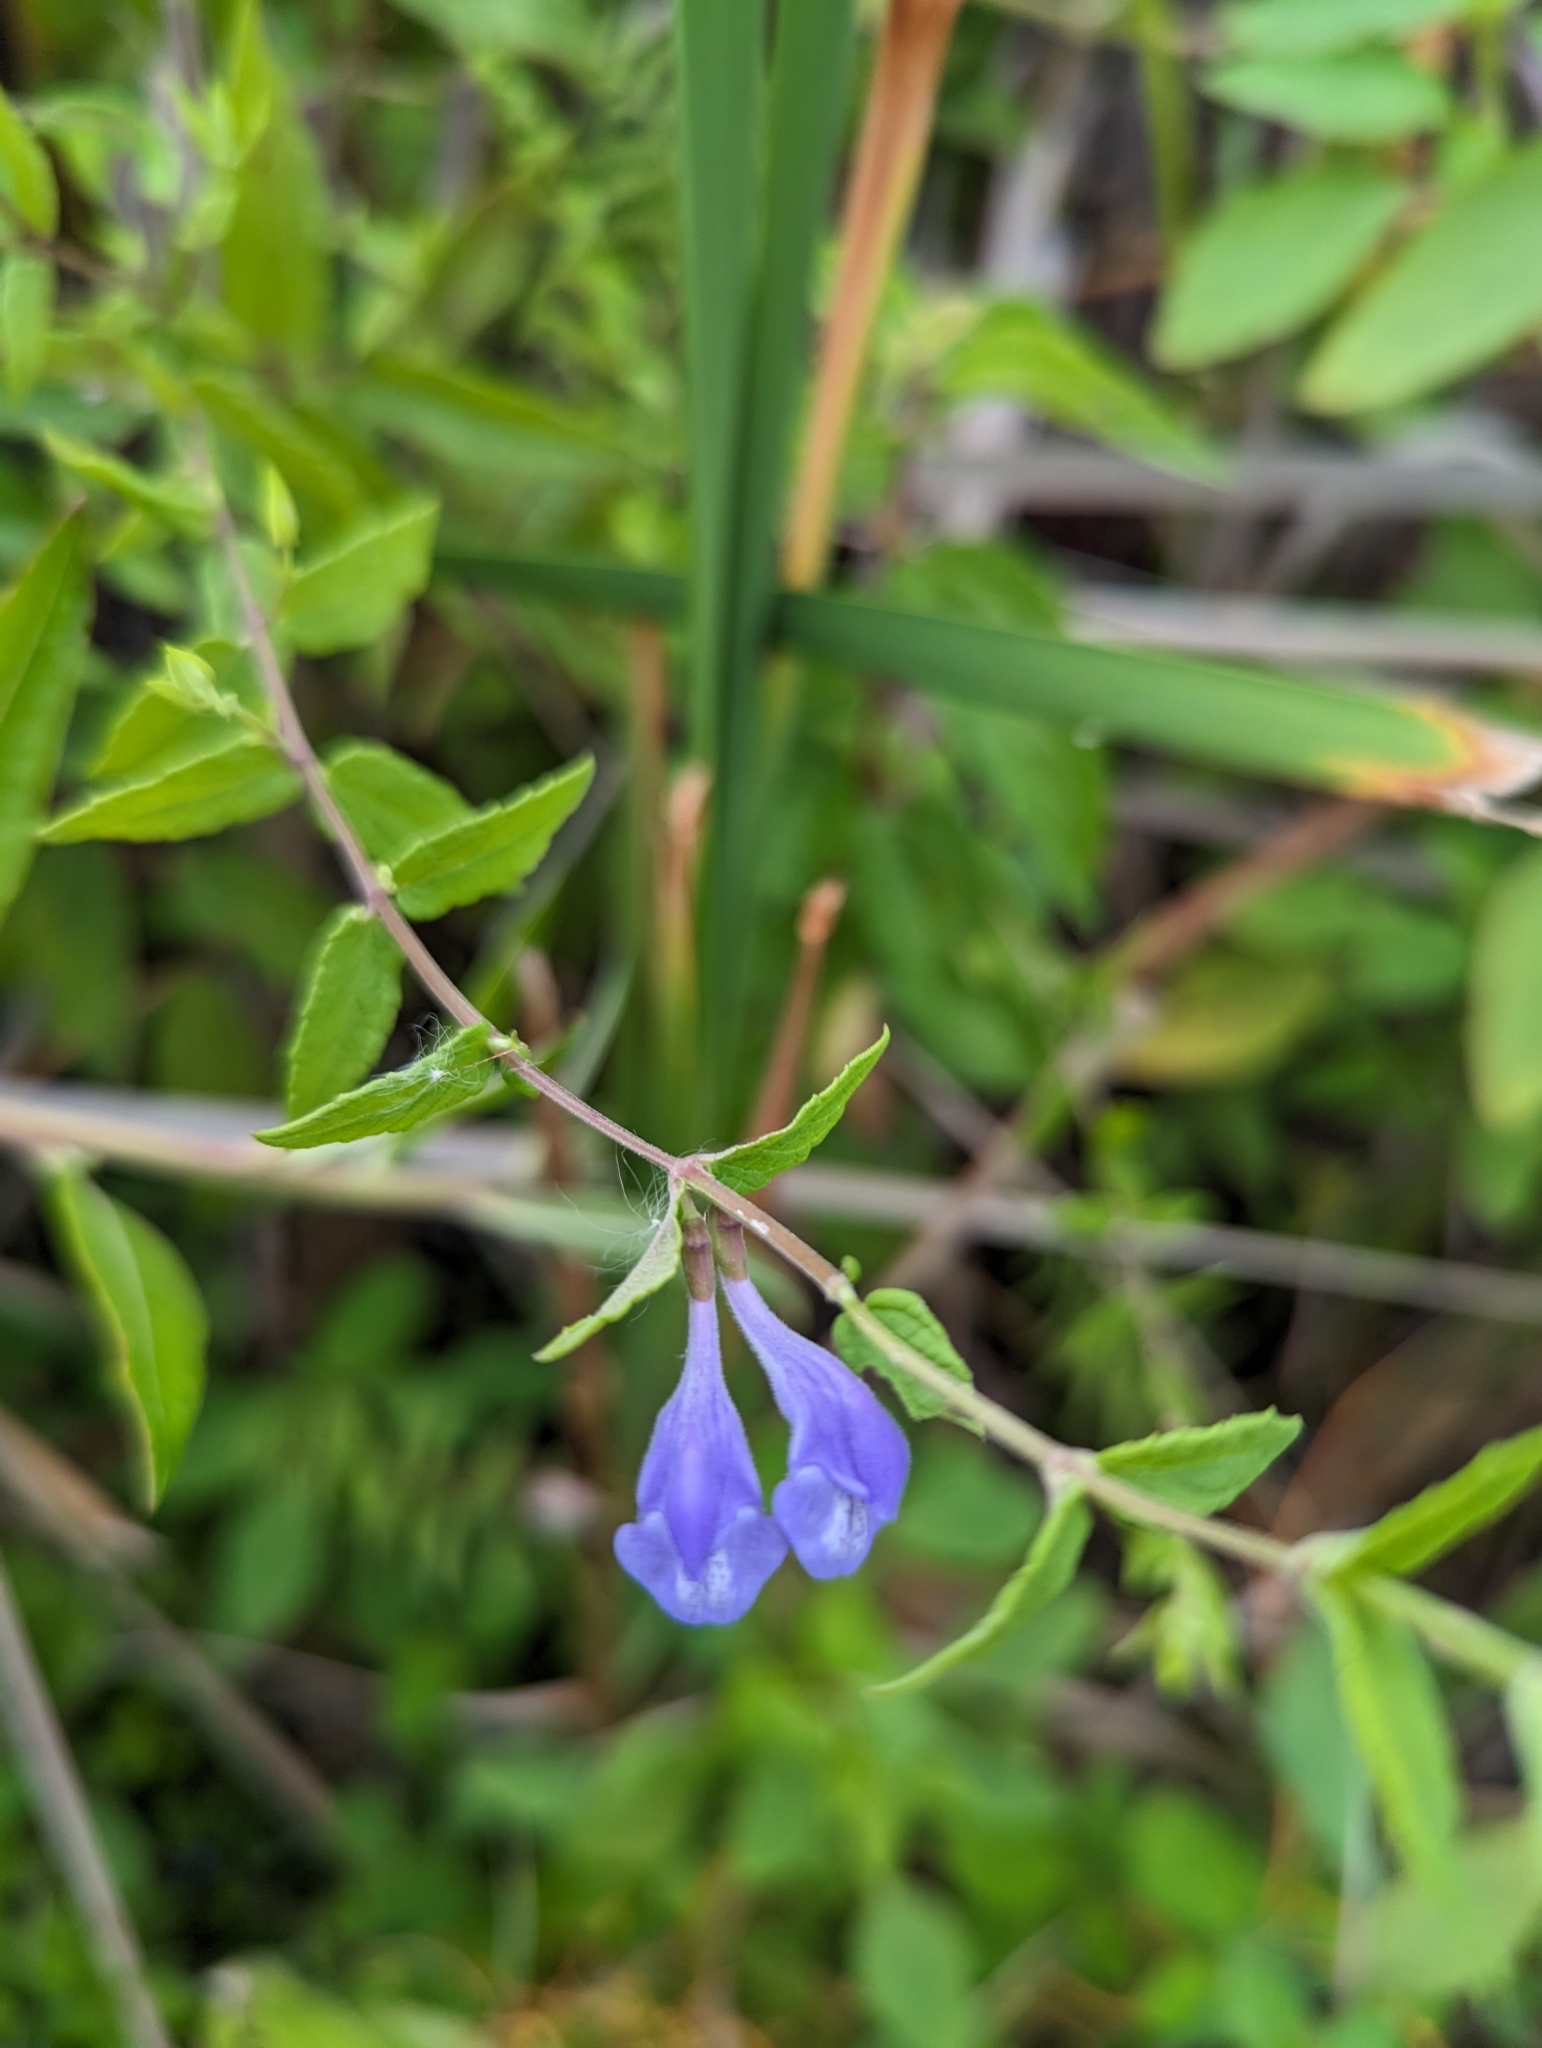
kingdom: Plantae
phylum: Tracheophyta
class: Magnoliopsida
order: Lamiales
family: Lamiaceae
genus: Scutellaria
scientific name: Scutellaria galericulata
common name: Skullcap
